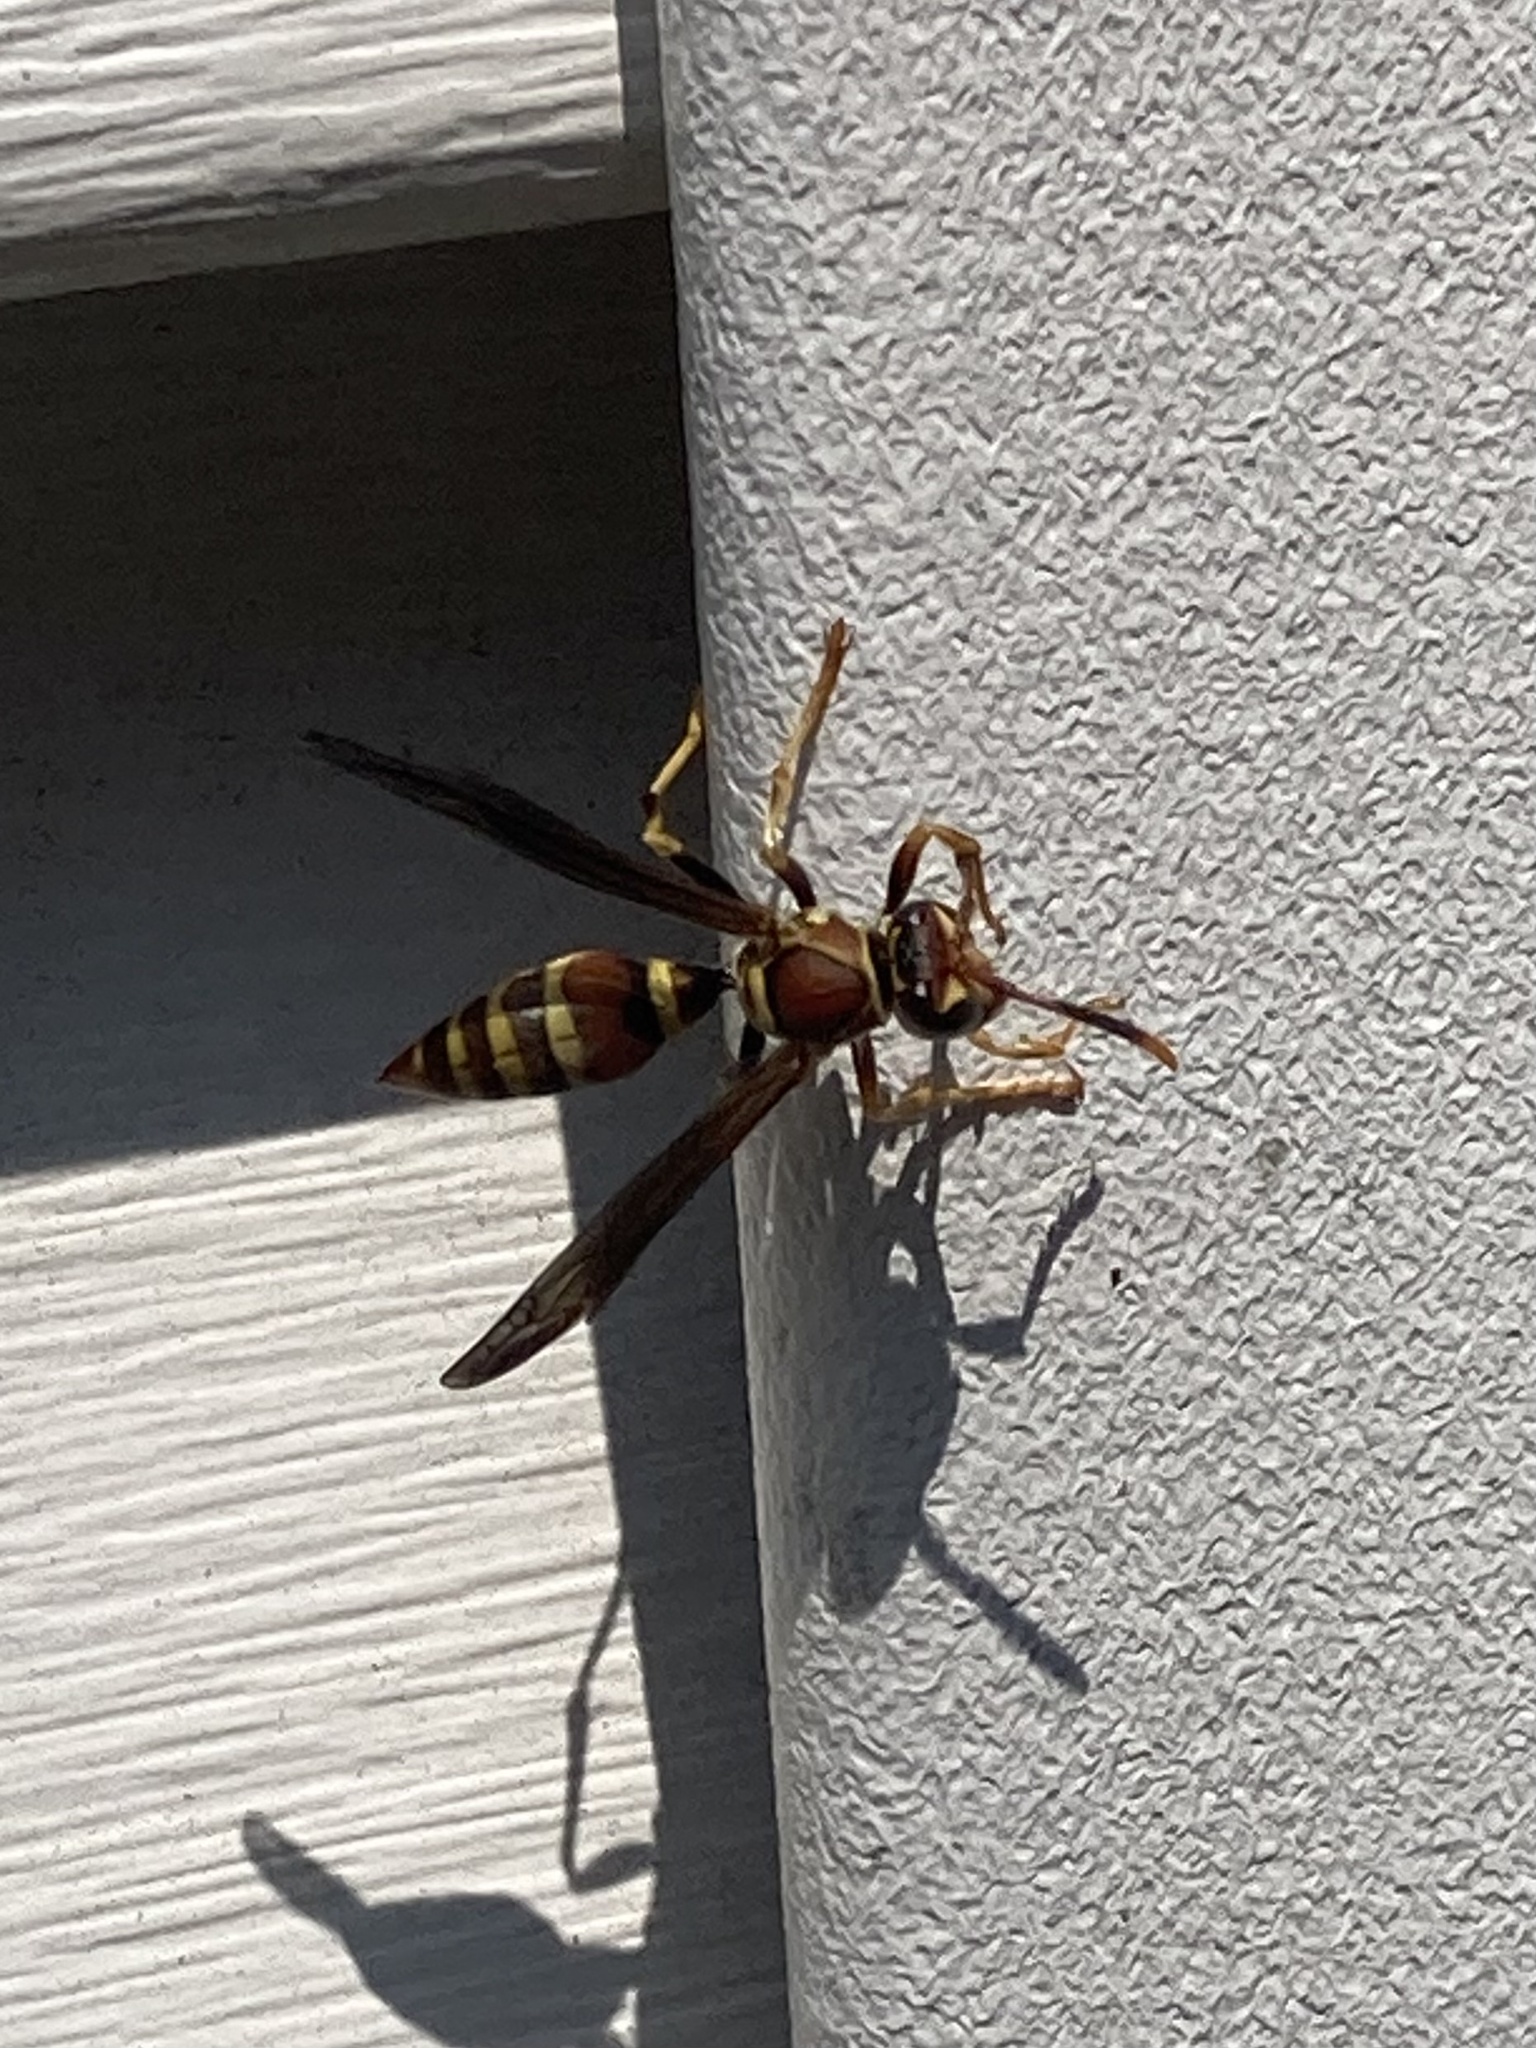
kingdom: Animalia
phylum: Arthropoda
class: Insecta
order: Hymenoptera
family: Eumenidae
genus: Polistes
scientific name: Polistes exclamans
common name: Paper wasp
